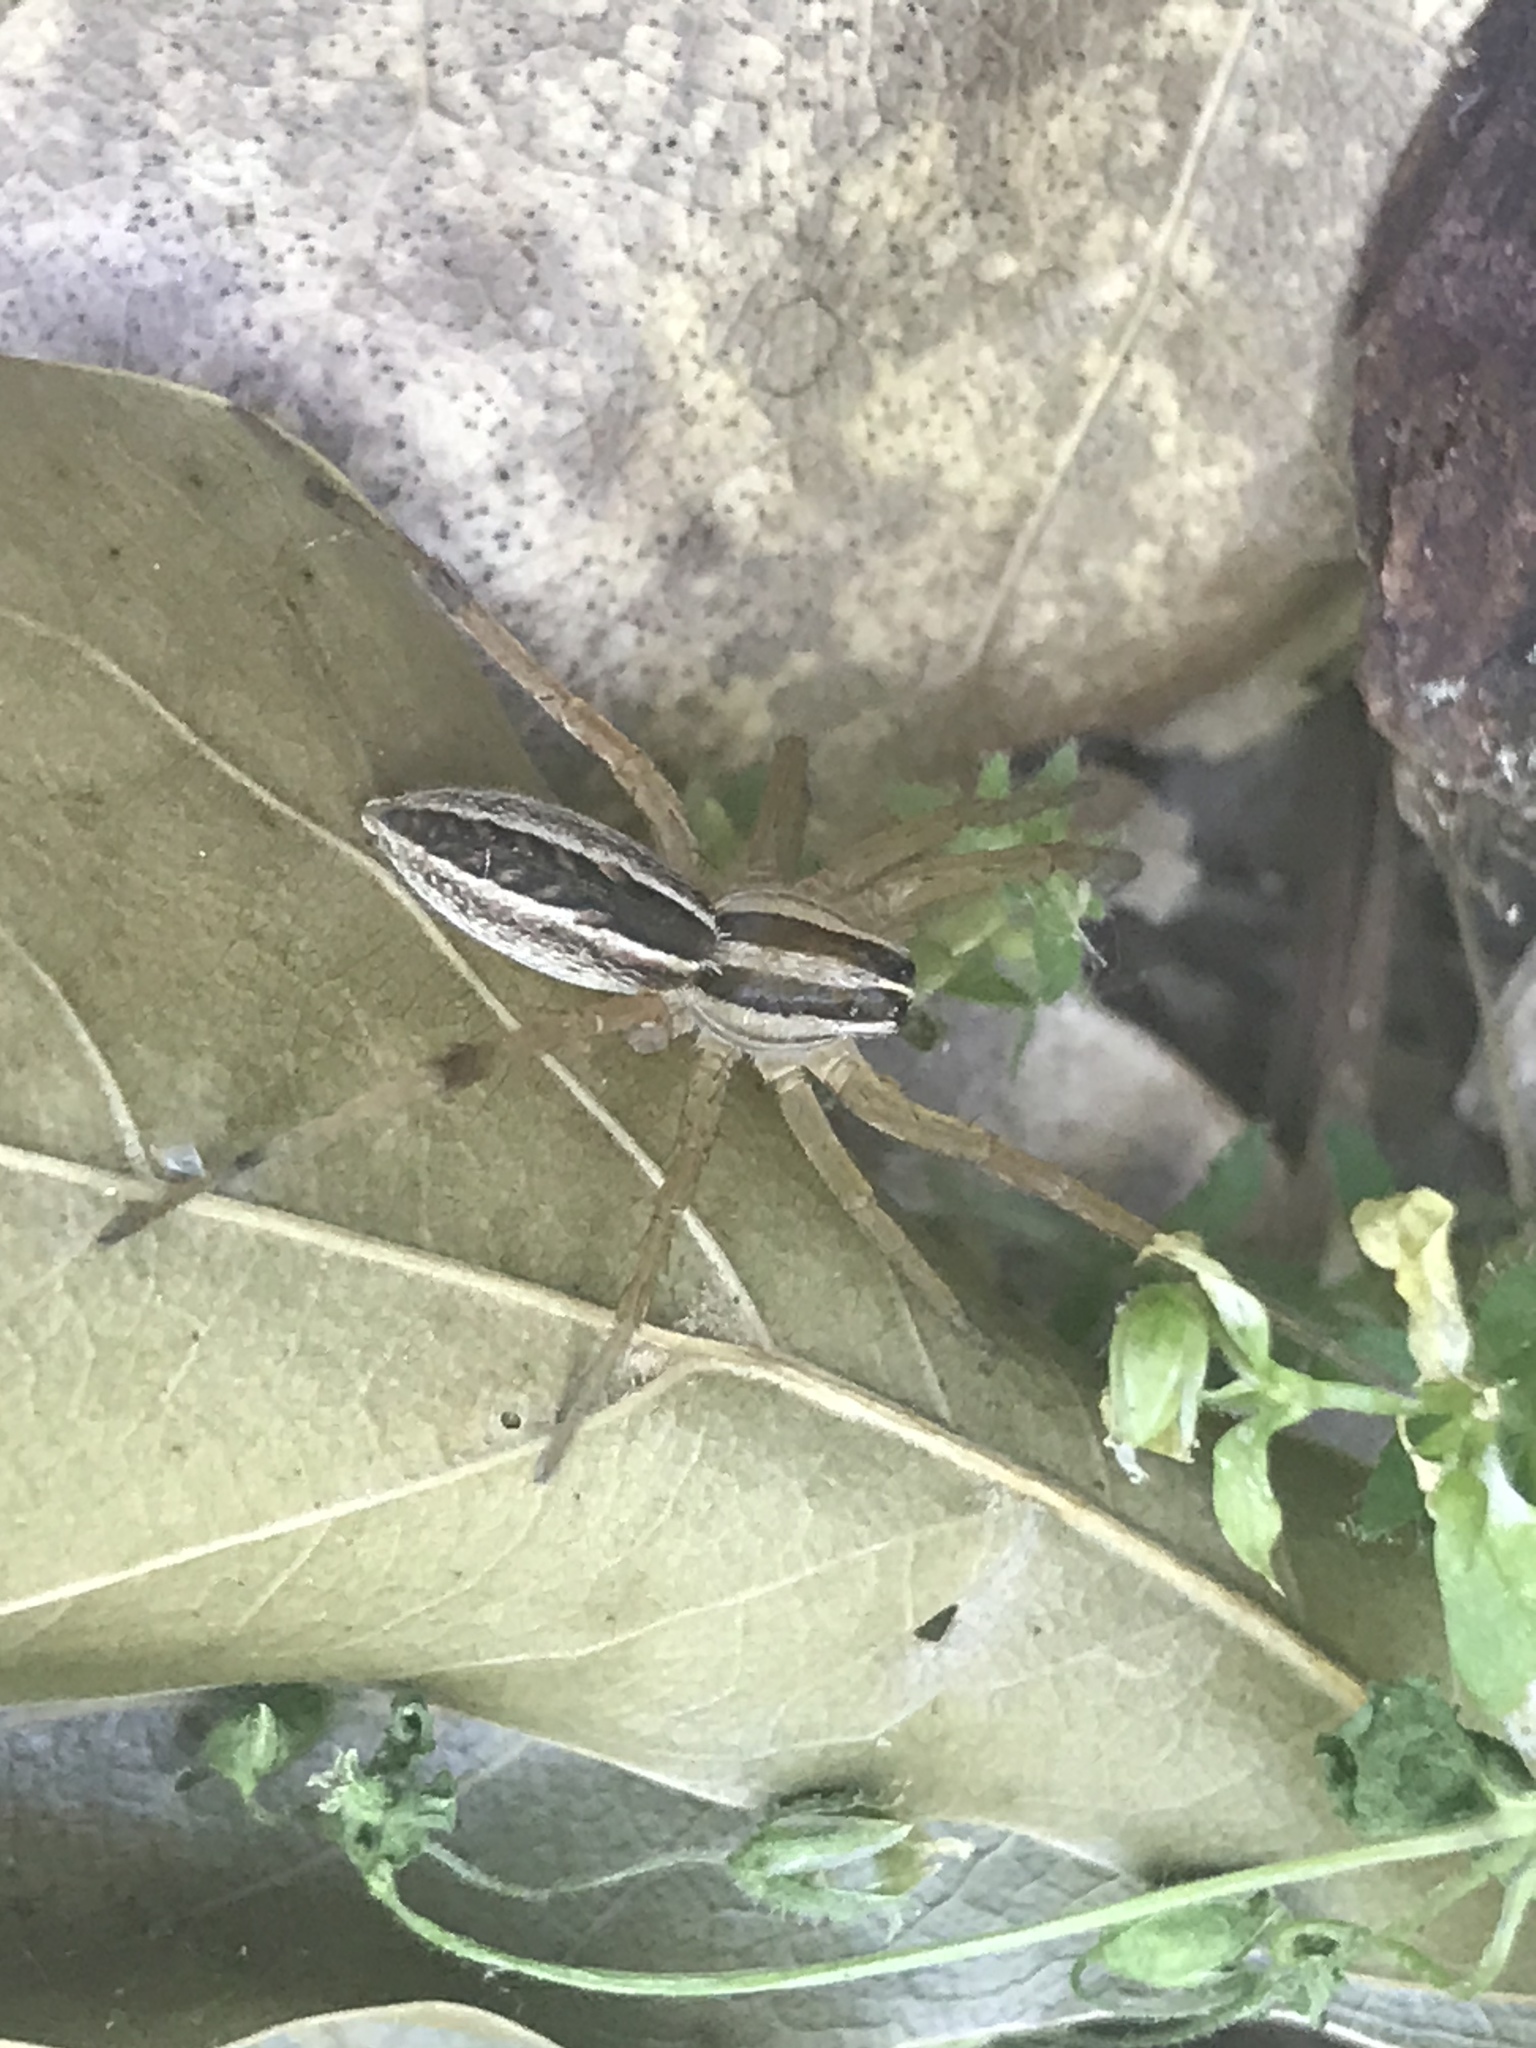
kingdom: Animalia
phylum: Arthropoda
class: Arachnida
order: Araneae
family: Lycosidae
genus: Rabidosa
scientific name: Rabidosa rabida
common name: Rabid wolf spider
